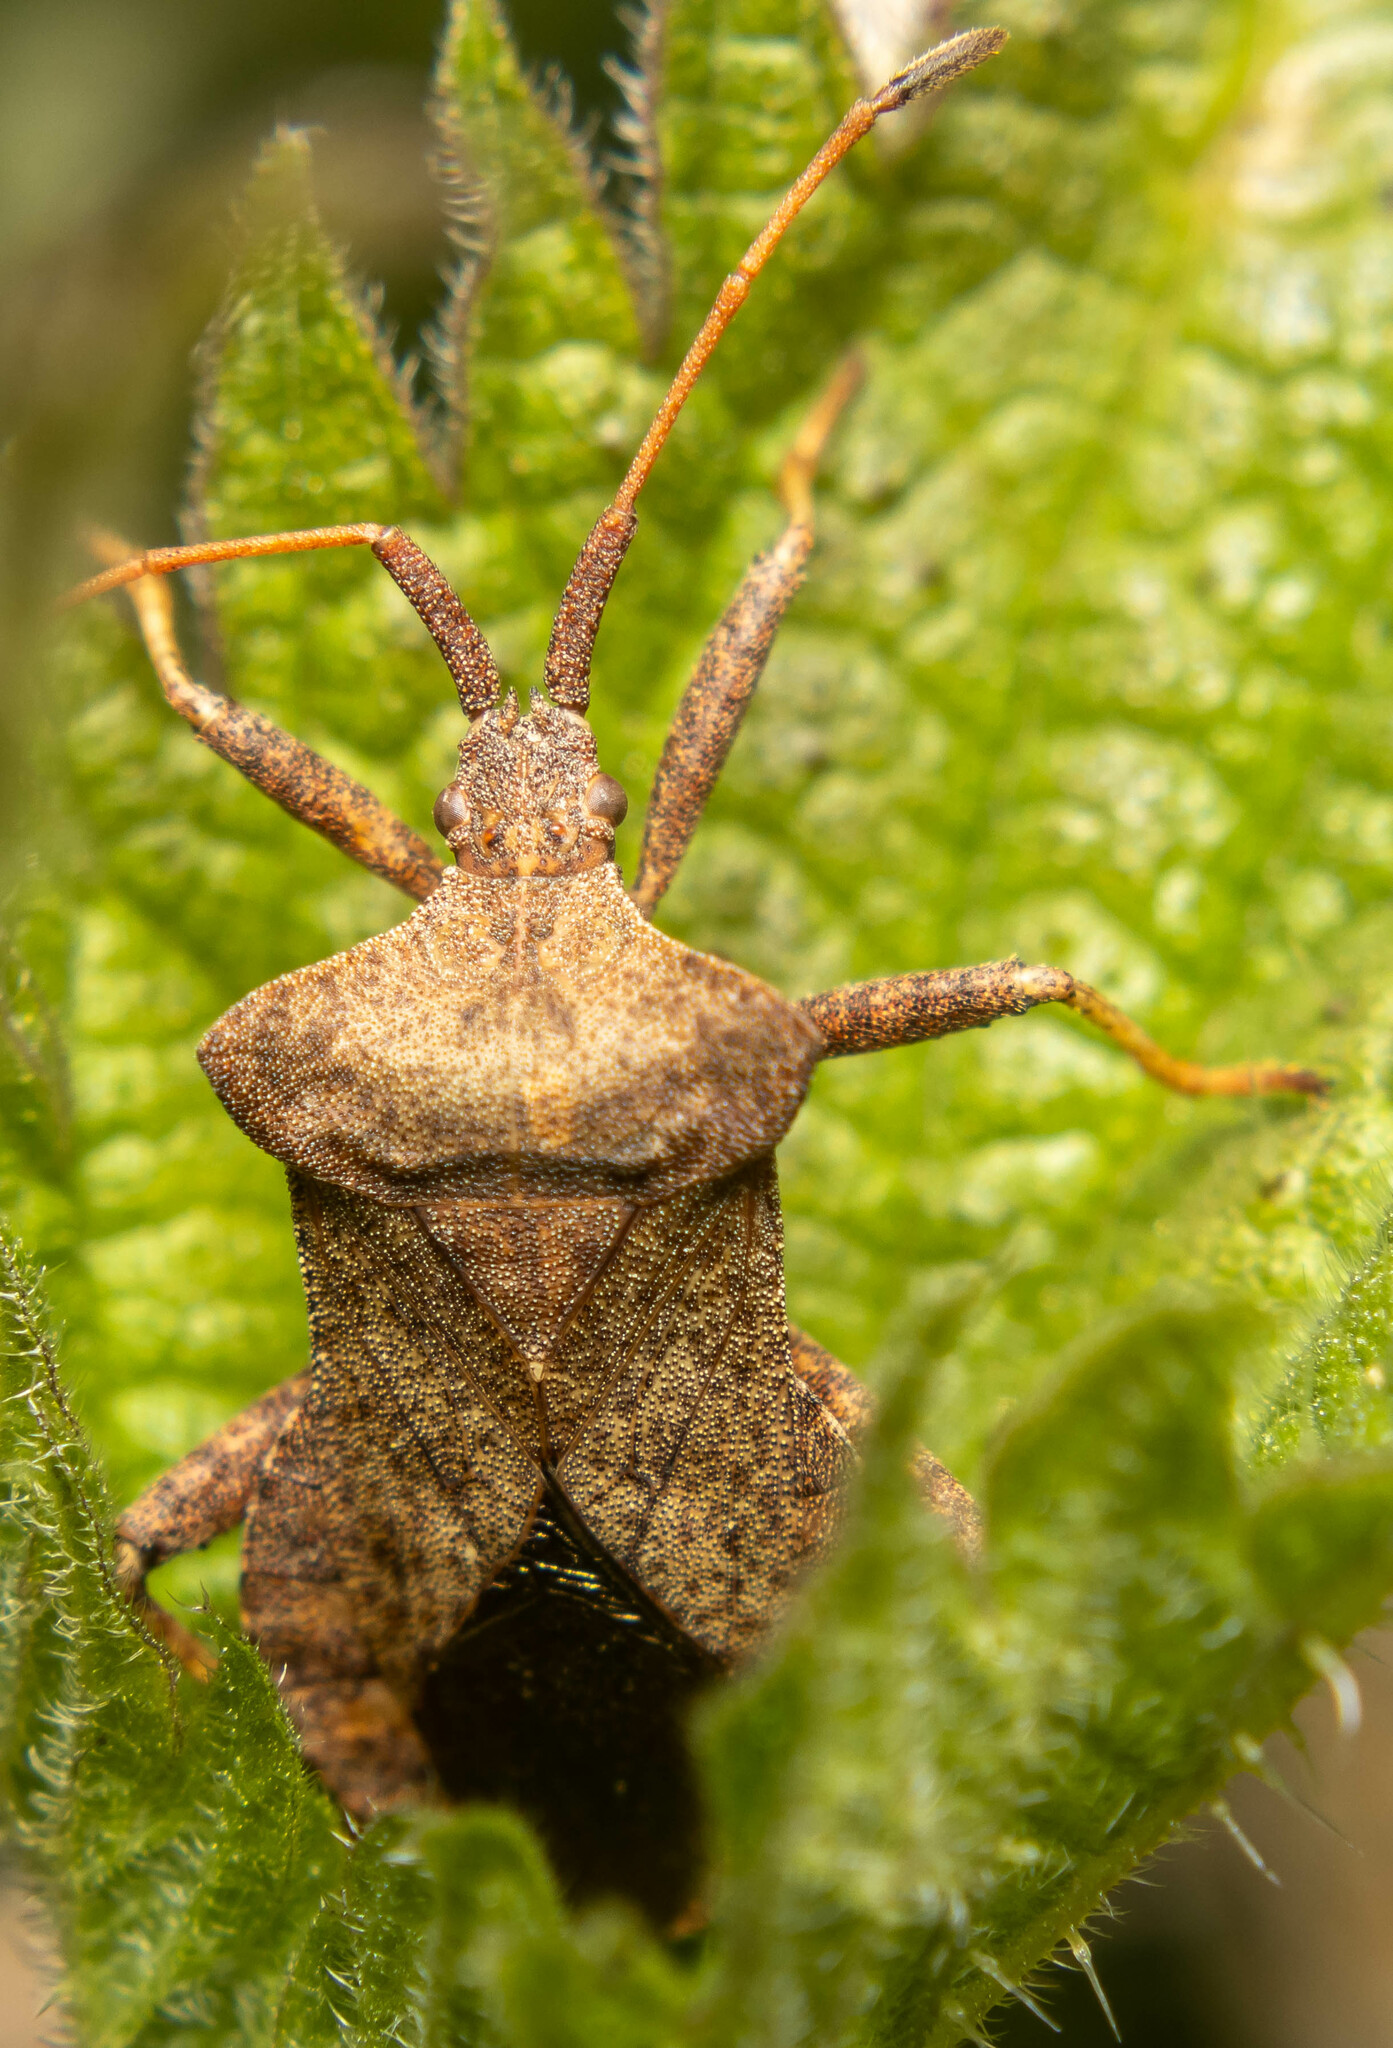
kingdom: Animalia
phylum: Arthropoda
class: Insecta
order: Hemiptera
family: Coreidae
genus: Coreus
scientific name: Coreus marginatus
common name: Dock bug
